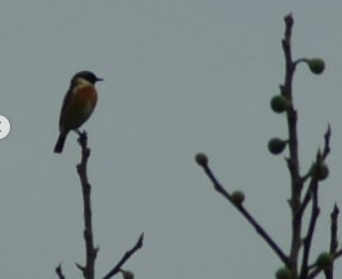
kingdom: Animalia
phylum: Chordata
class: Aves
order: Passeriformes
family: Muscicapidae
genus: Saxicola
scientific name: Saxicola rubicola
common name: European stonechat
